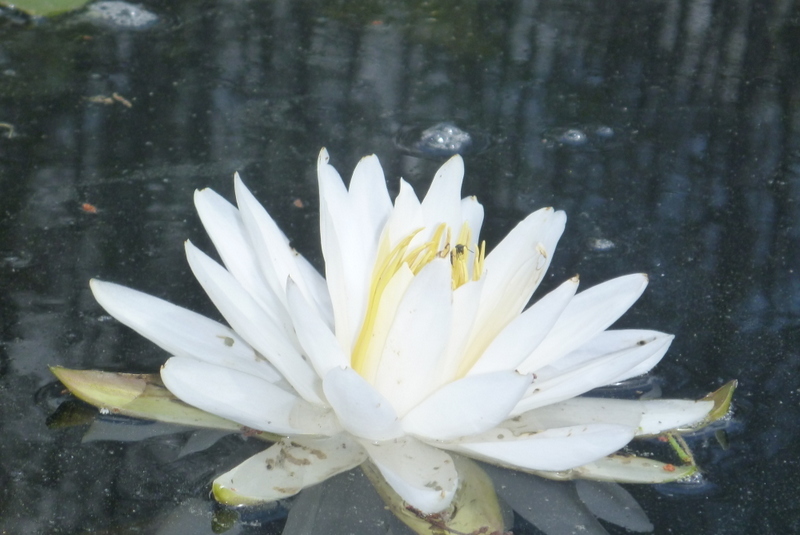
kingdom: Plantae
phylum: Tracheophyta
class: Magnoliopsida
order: Nymphaeales
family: Nymphaeaceae
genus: Nymphaea
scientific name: Nymphaea odorata
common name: Fragrant water-lily
